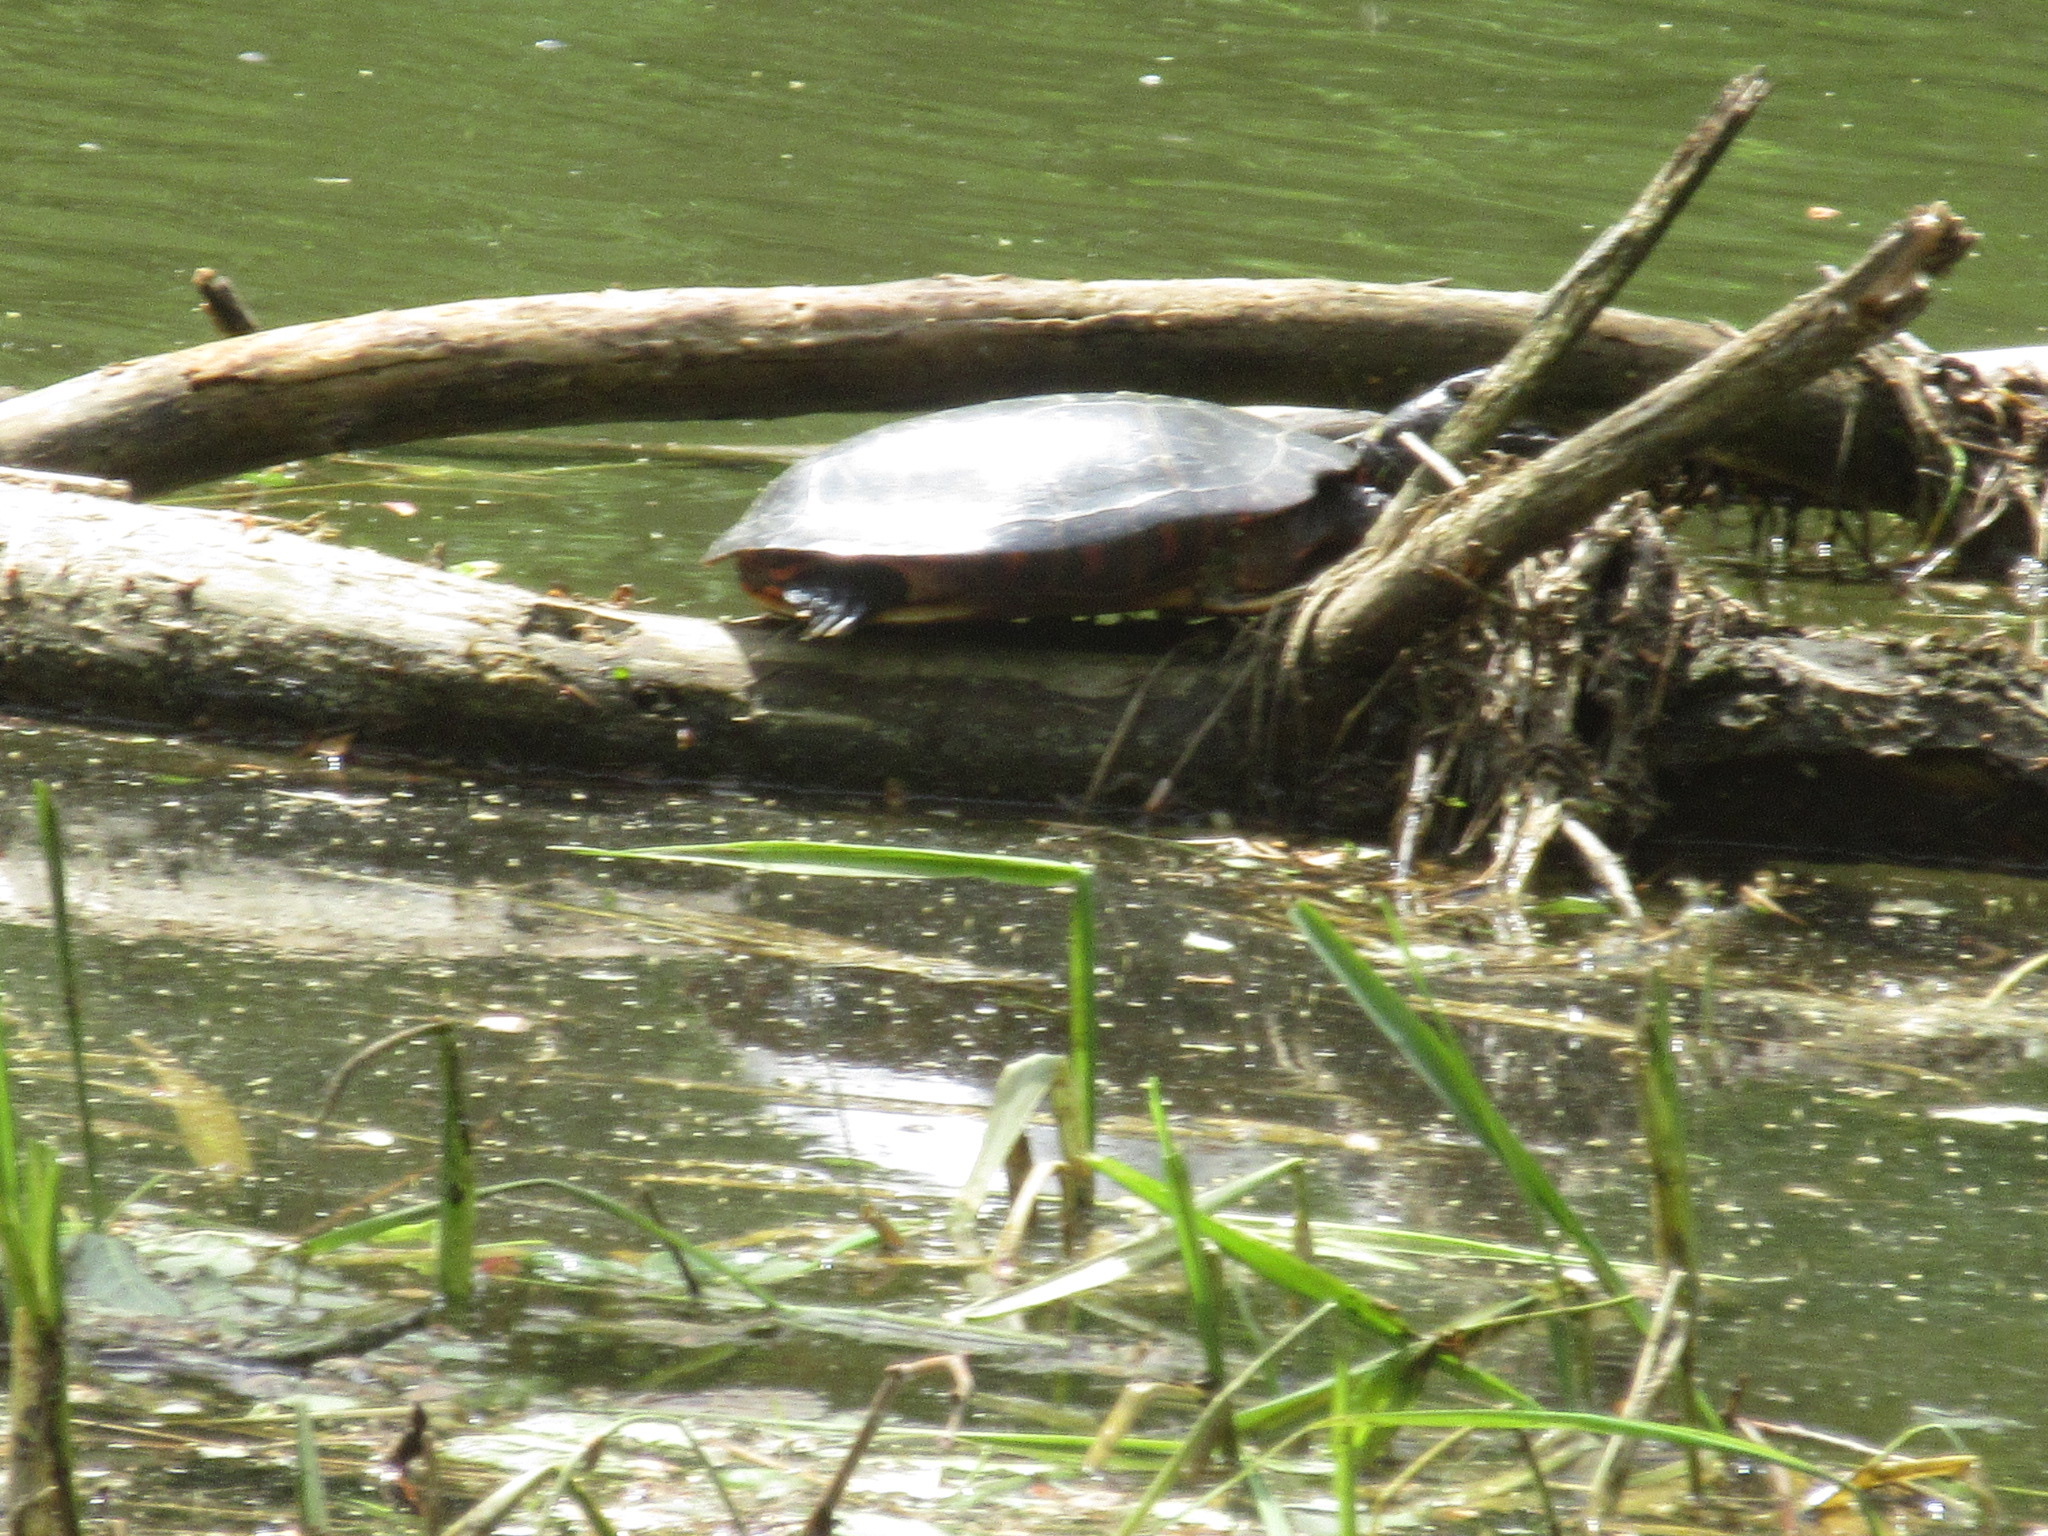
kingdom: Animalia
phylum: Chordata
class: Testudines
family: Emydidae
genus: Chrysemys
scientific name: Chrysemys picta
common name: Painted turtle
